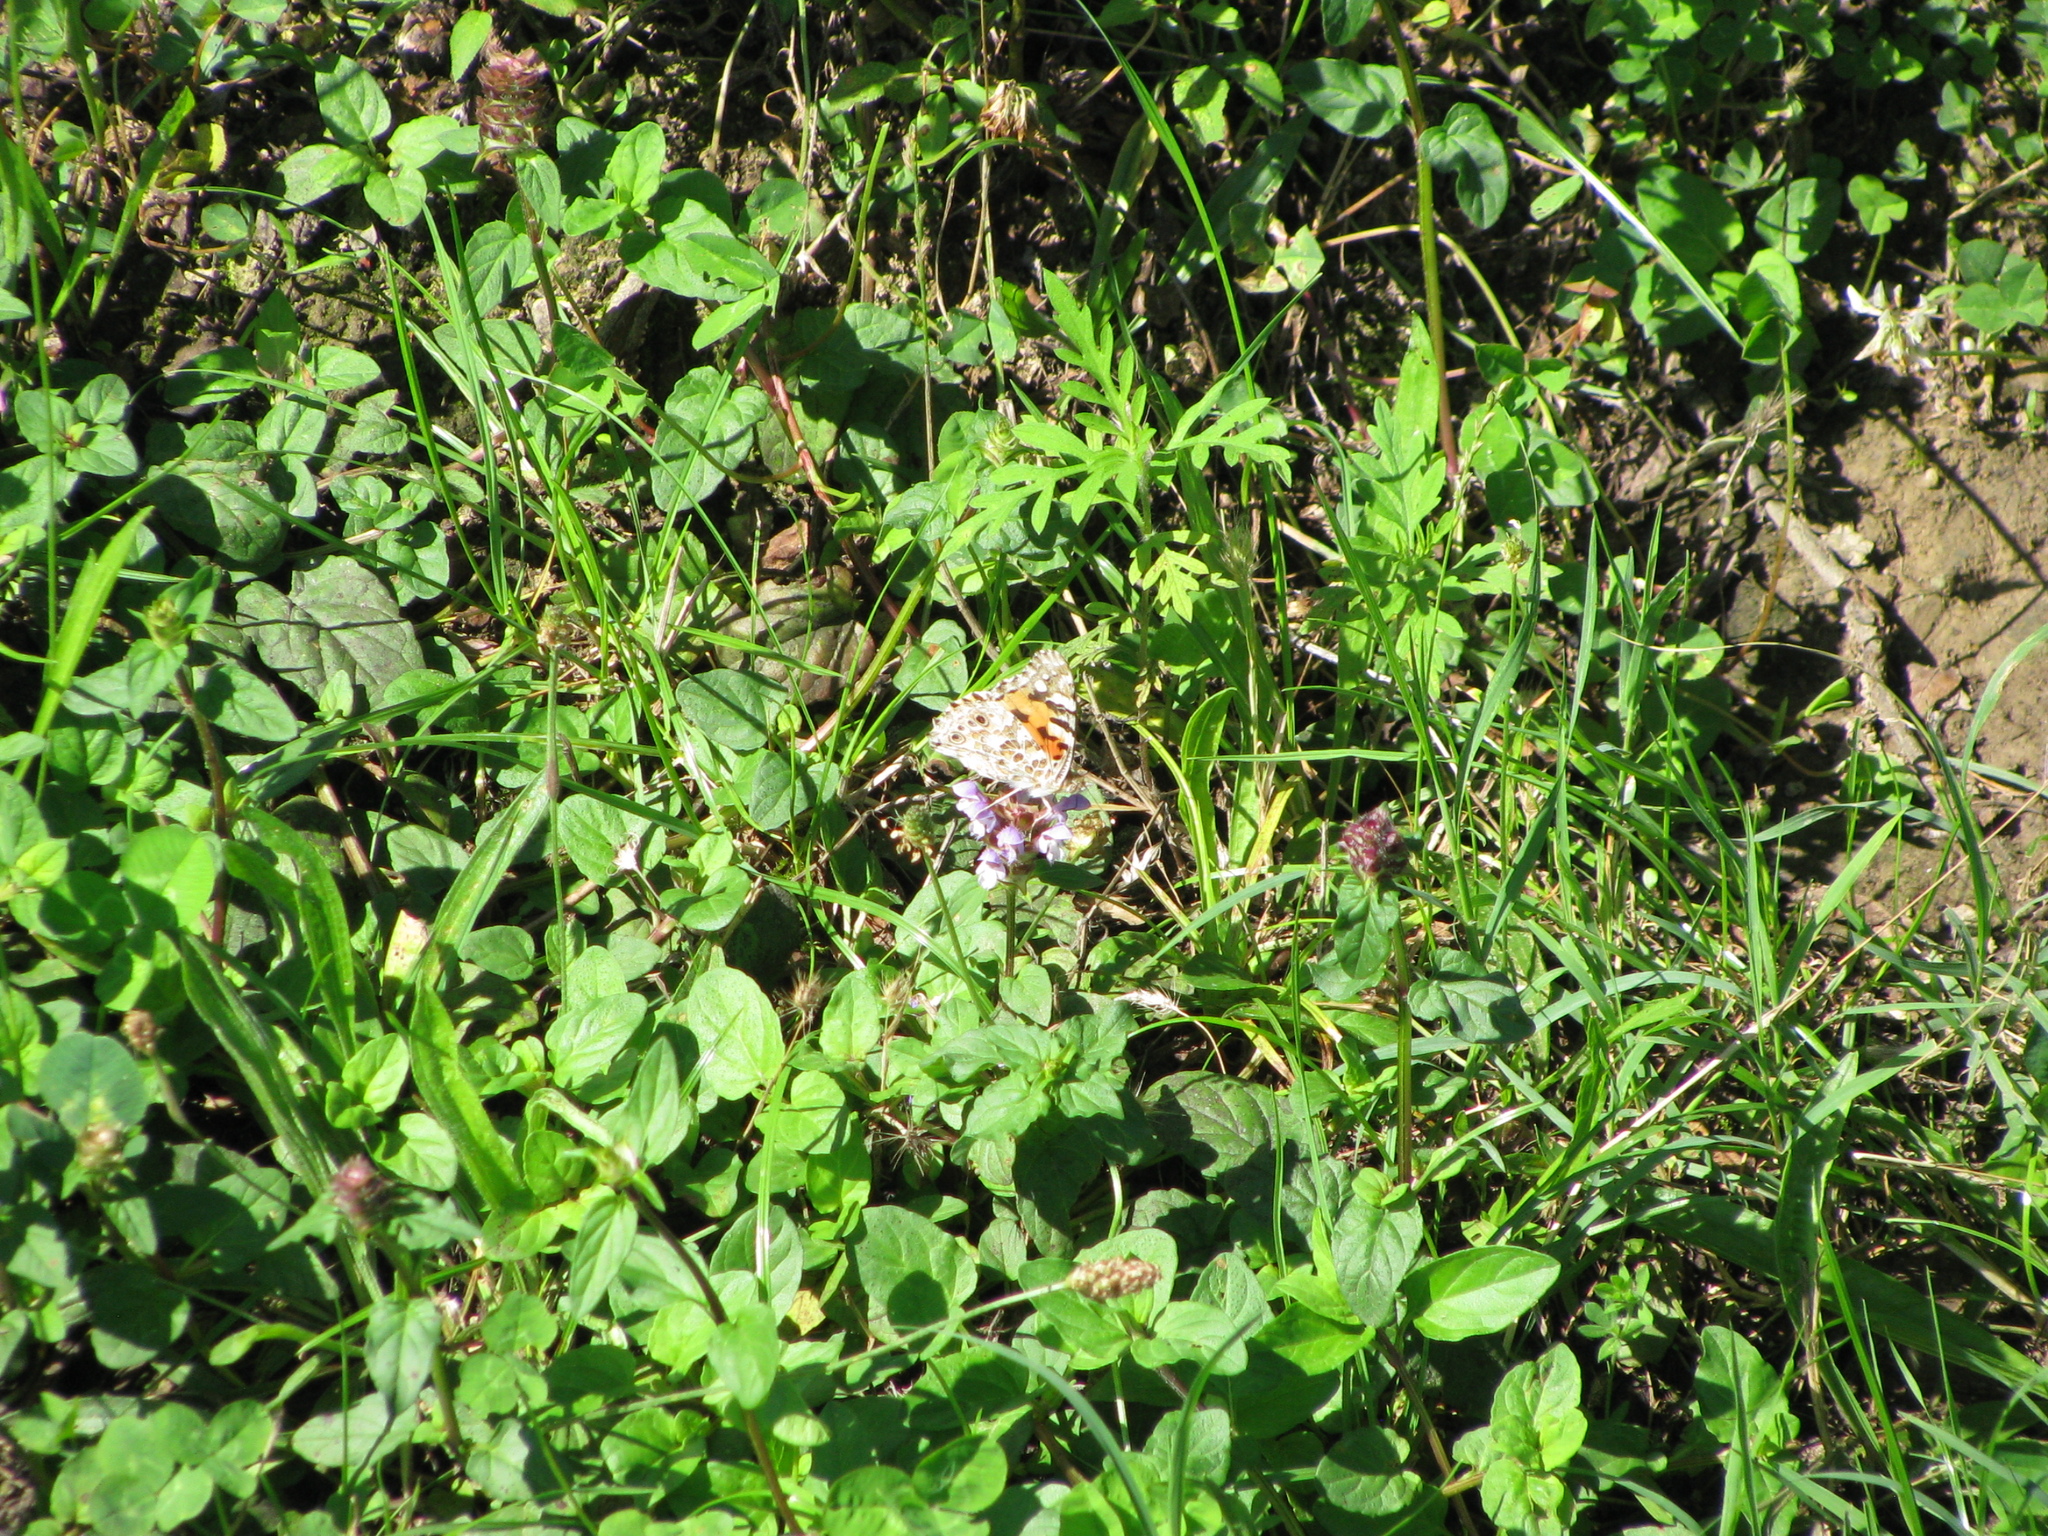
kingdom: Animalia
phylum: Arthropoda
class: Insecta
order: Lepidoptera
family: Nymphalidae
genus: Vanessa
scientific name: Vanessa cardui
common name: Painted lady
